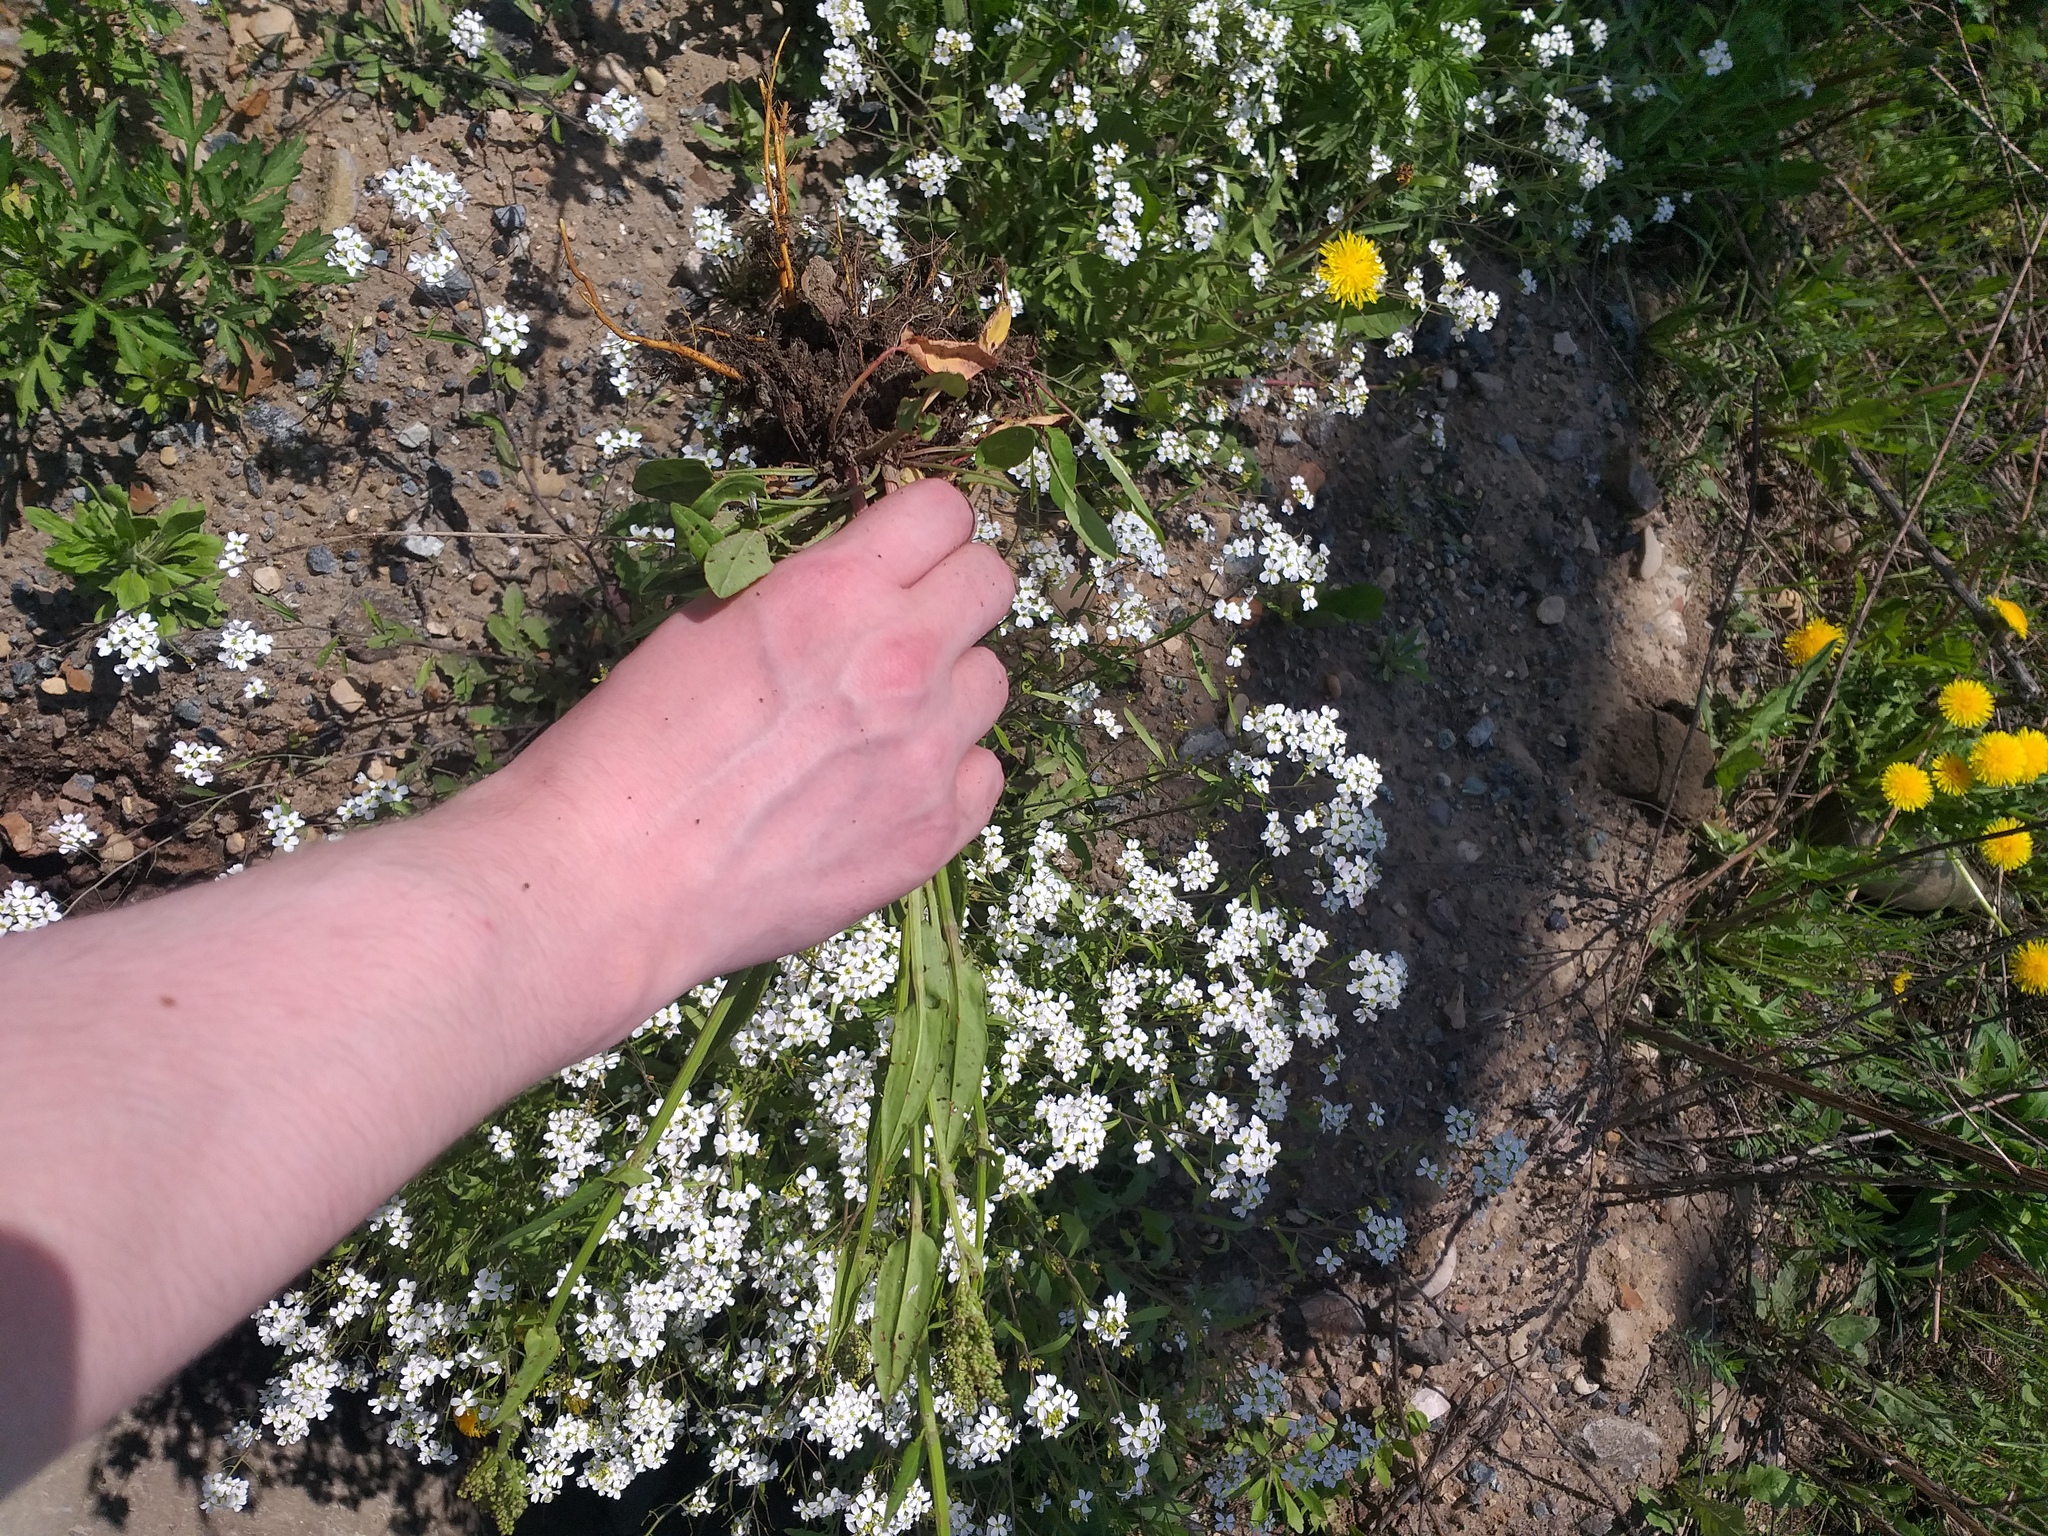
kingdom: Plantae
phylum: Tracheophyta
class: Magnoliopsida
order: Caryophyllales
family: Polygonaceae
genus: Rumex
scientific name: Rumex acetosa
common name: Garden sorrel
